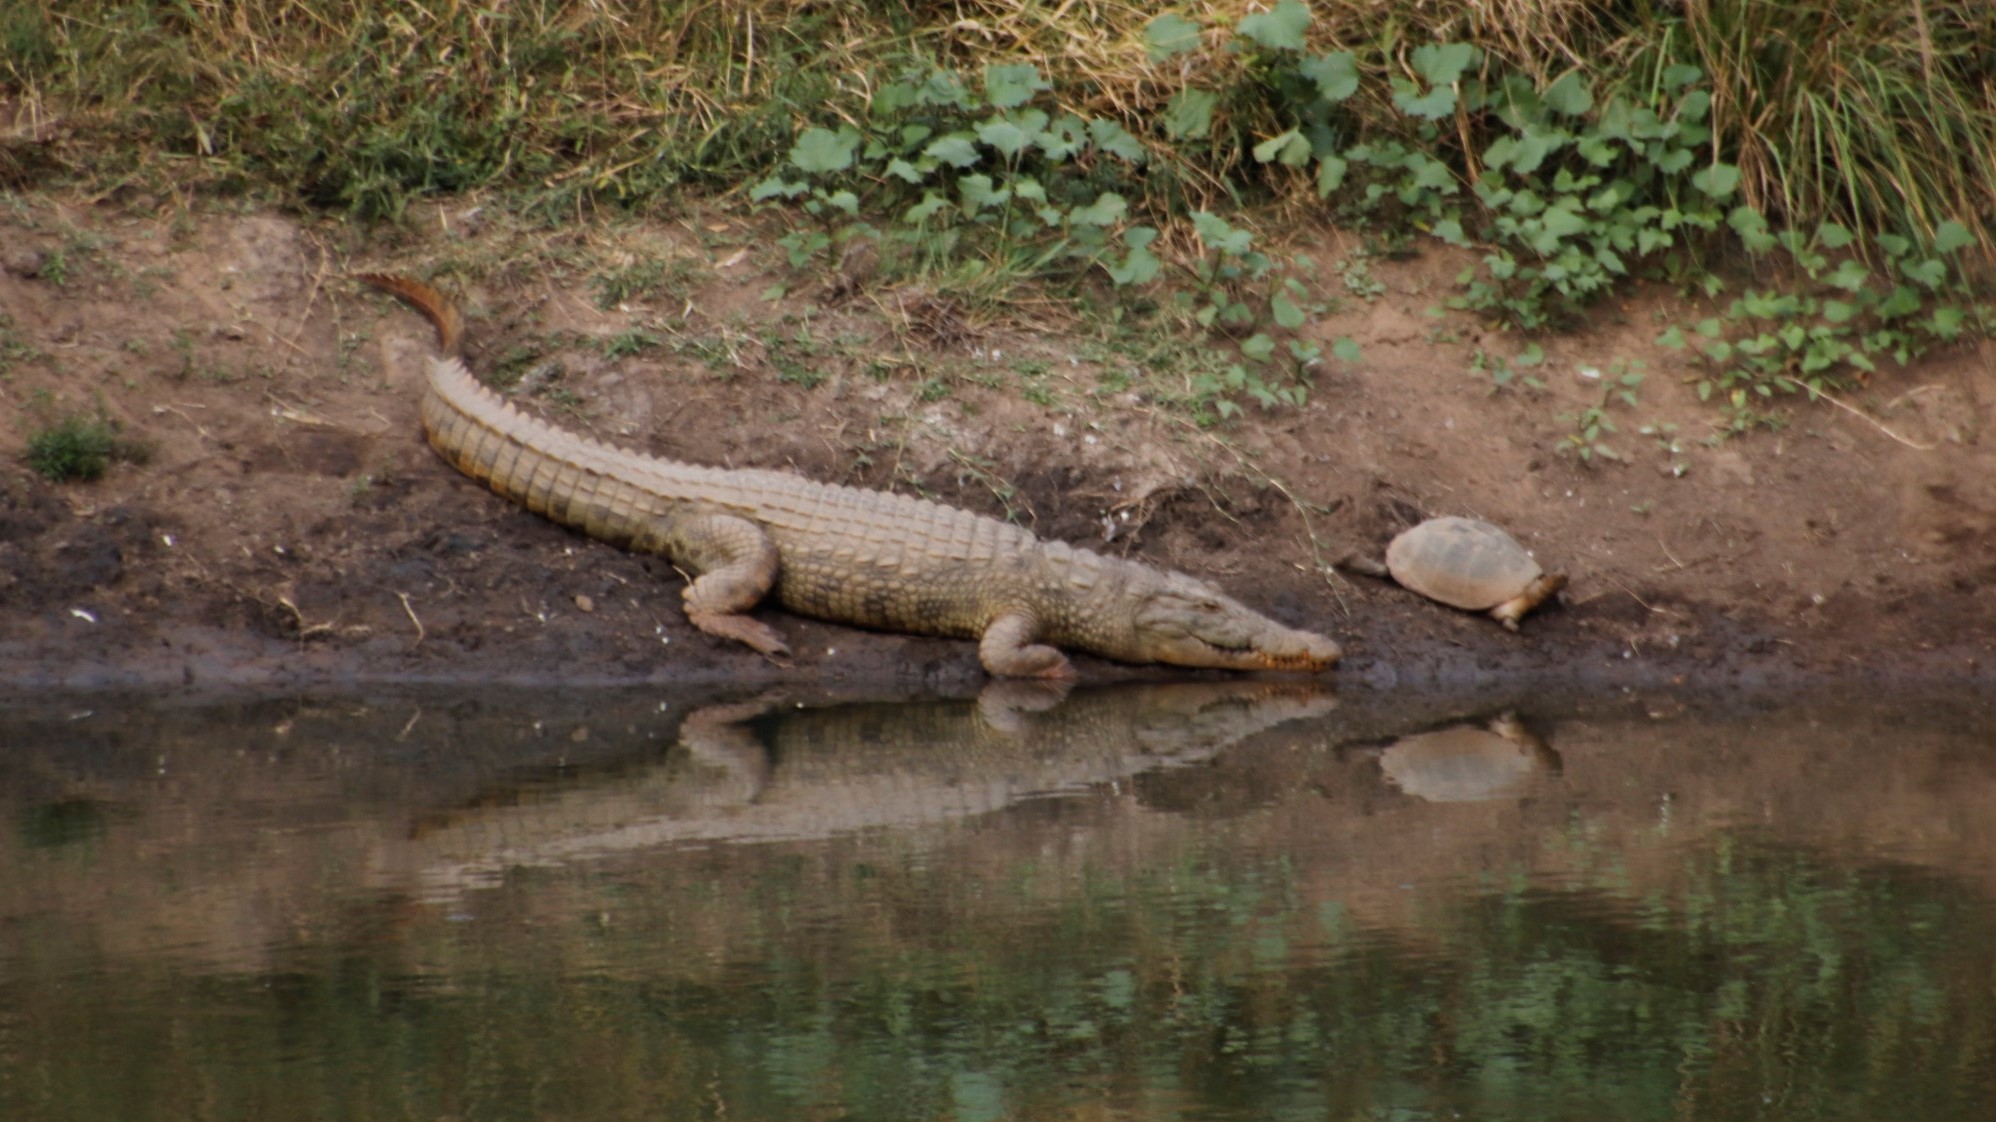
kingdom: Animalia
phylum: Chordata
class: Testudines
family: Pelomedusidae
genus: Pelusios
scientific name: Pelusios sinuatus
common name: Serrated hinged terrapin
